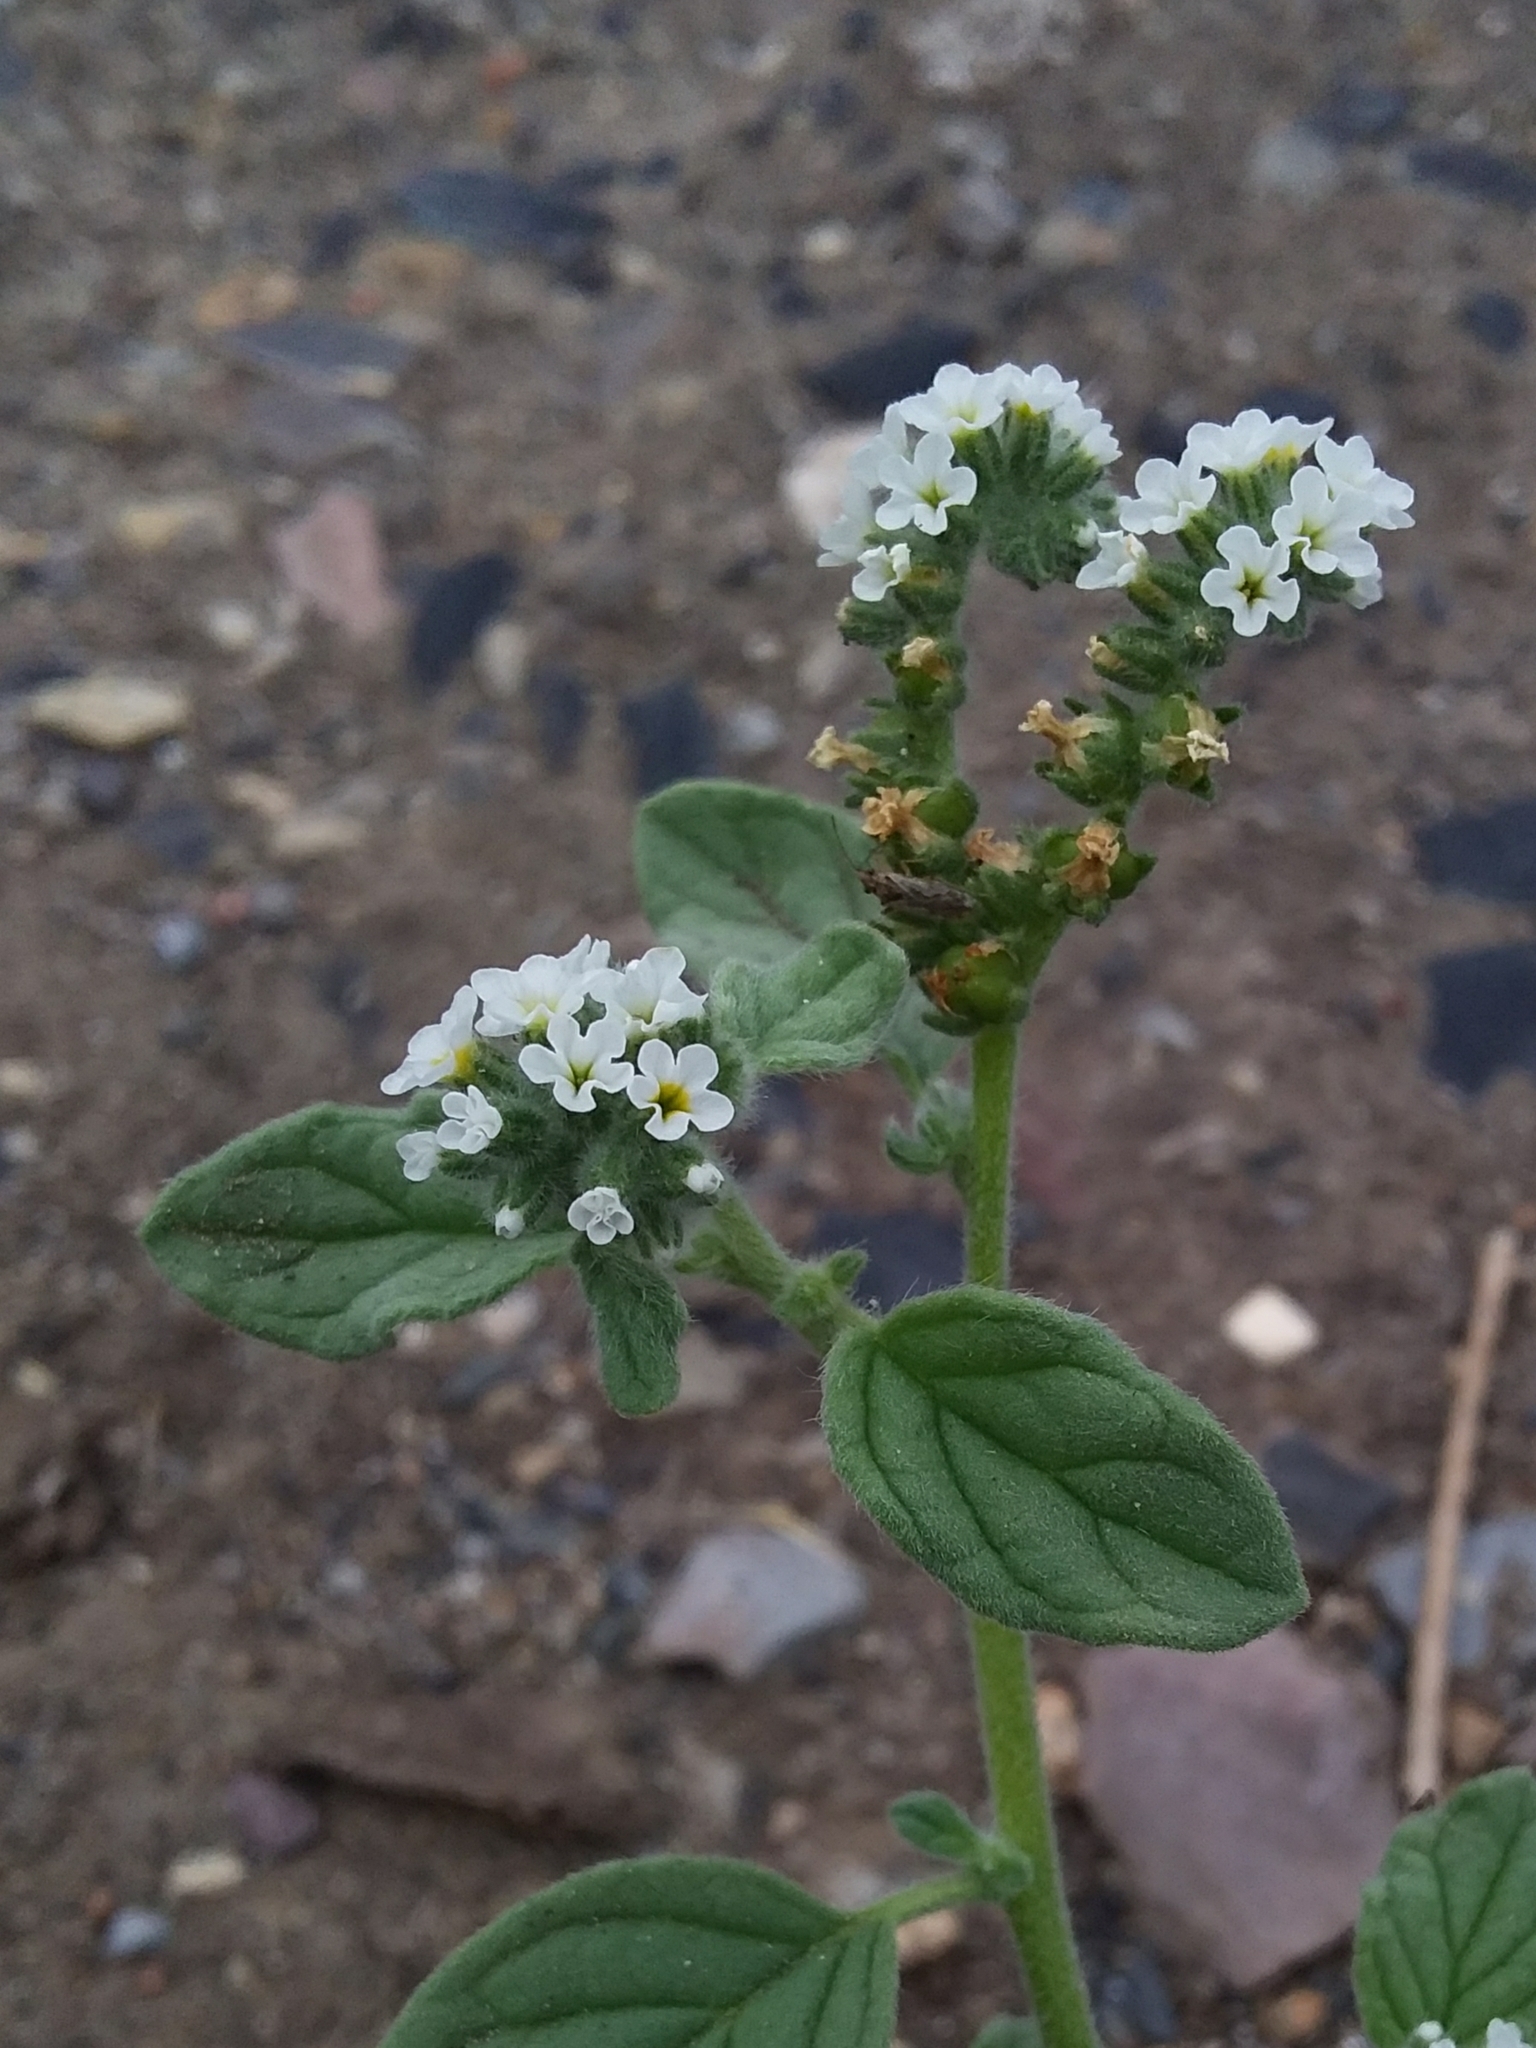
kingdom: Plantae
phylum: Tracheophyta
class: Magnoliopsida
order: Boraginales
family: Heliotropiaceae
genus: Heliotropium
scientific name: Heliotropium europaeum
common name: European heliotrope
